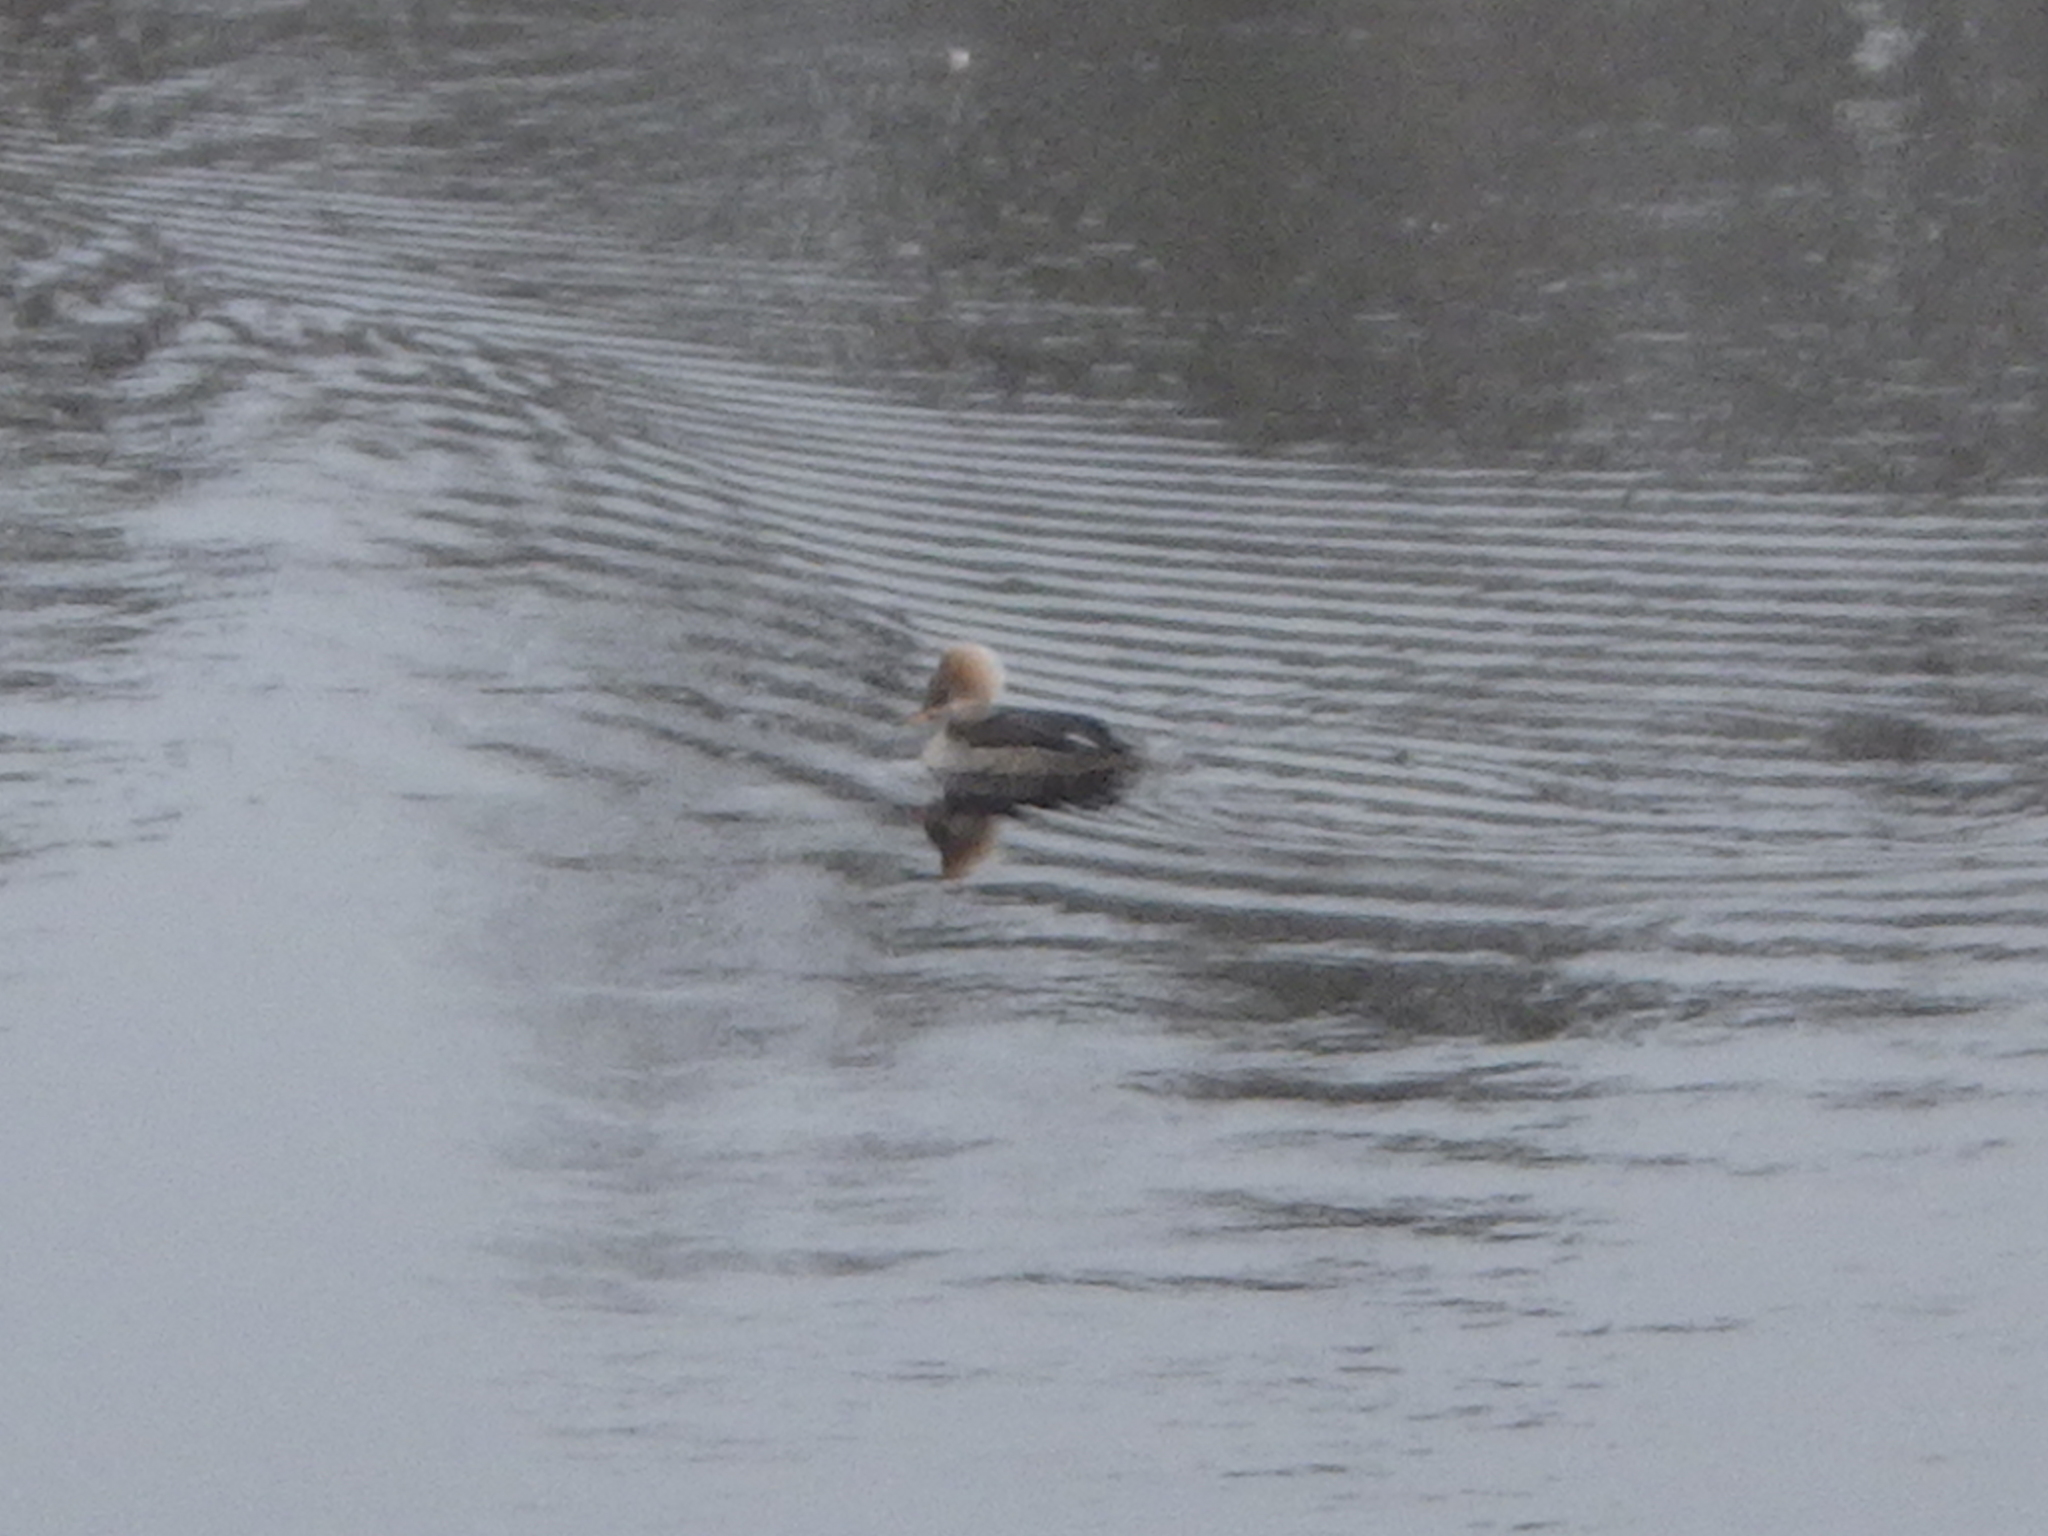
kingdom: Animalia
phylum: Chordata
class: Aves
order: Anseriformes
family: Anatidae
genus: Lophodytes
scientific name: Lophodytes cucullatus
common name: Hooded merganser
